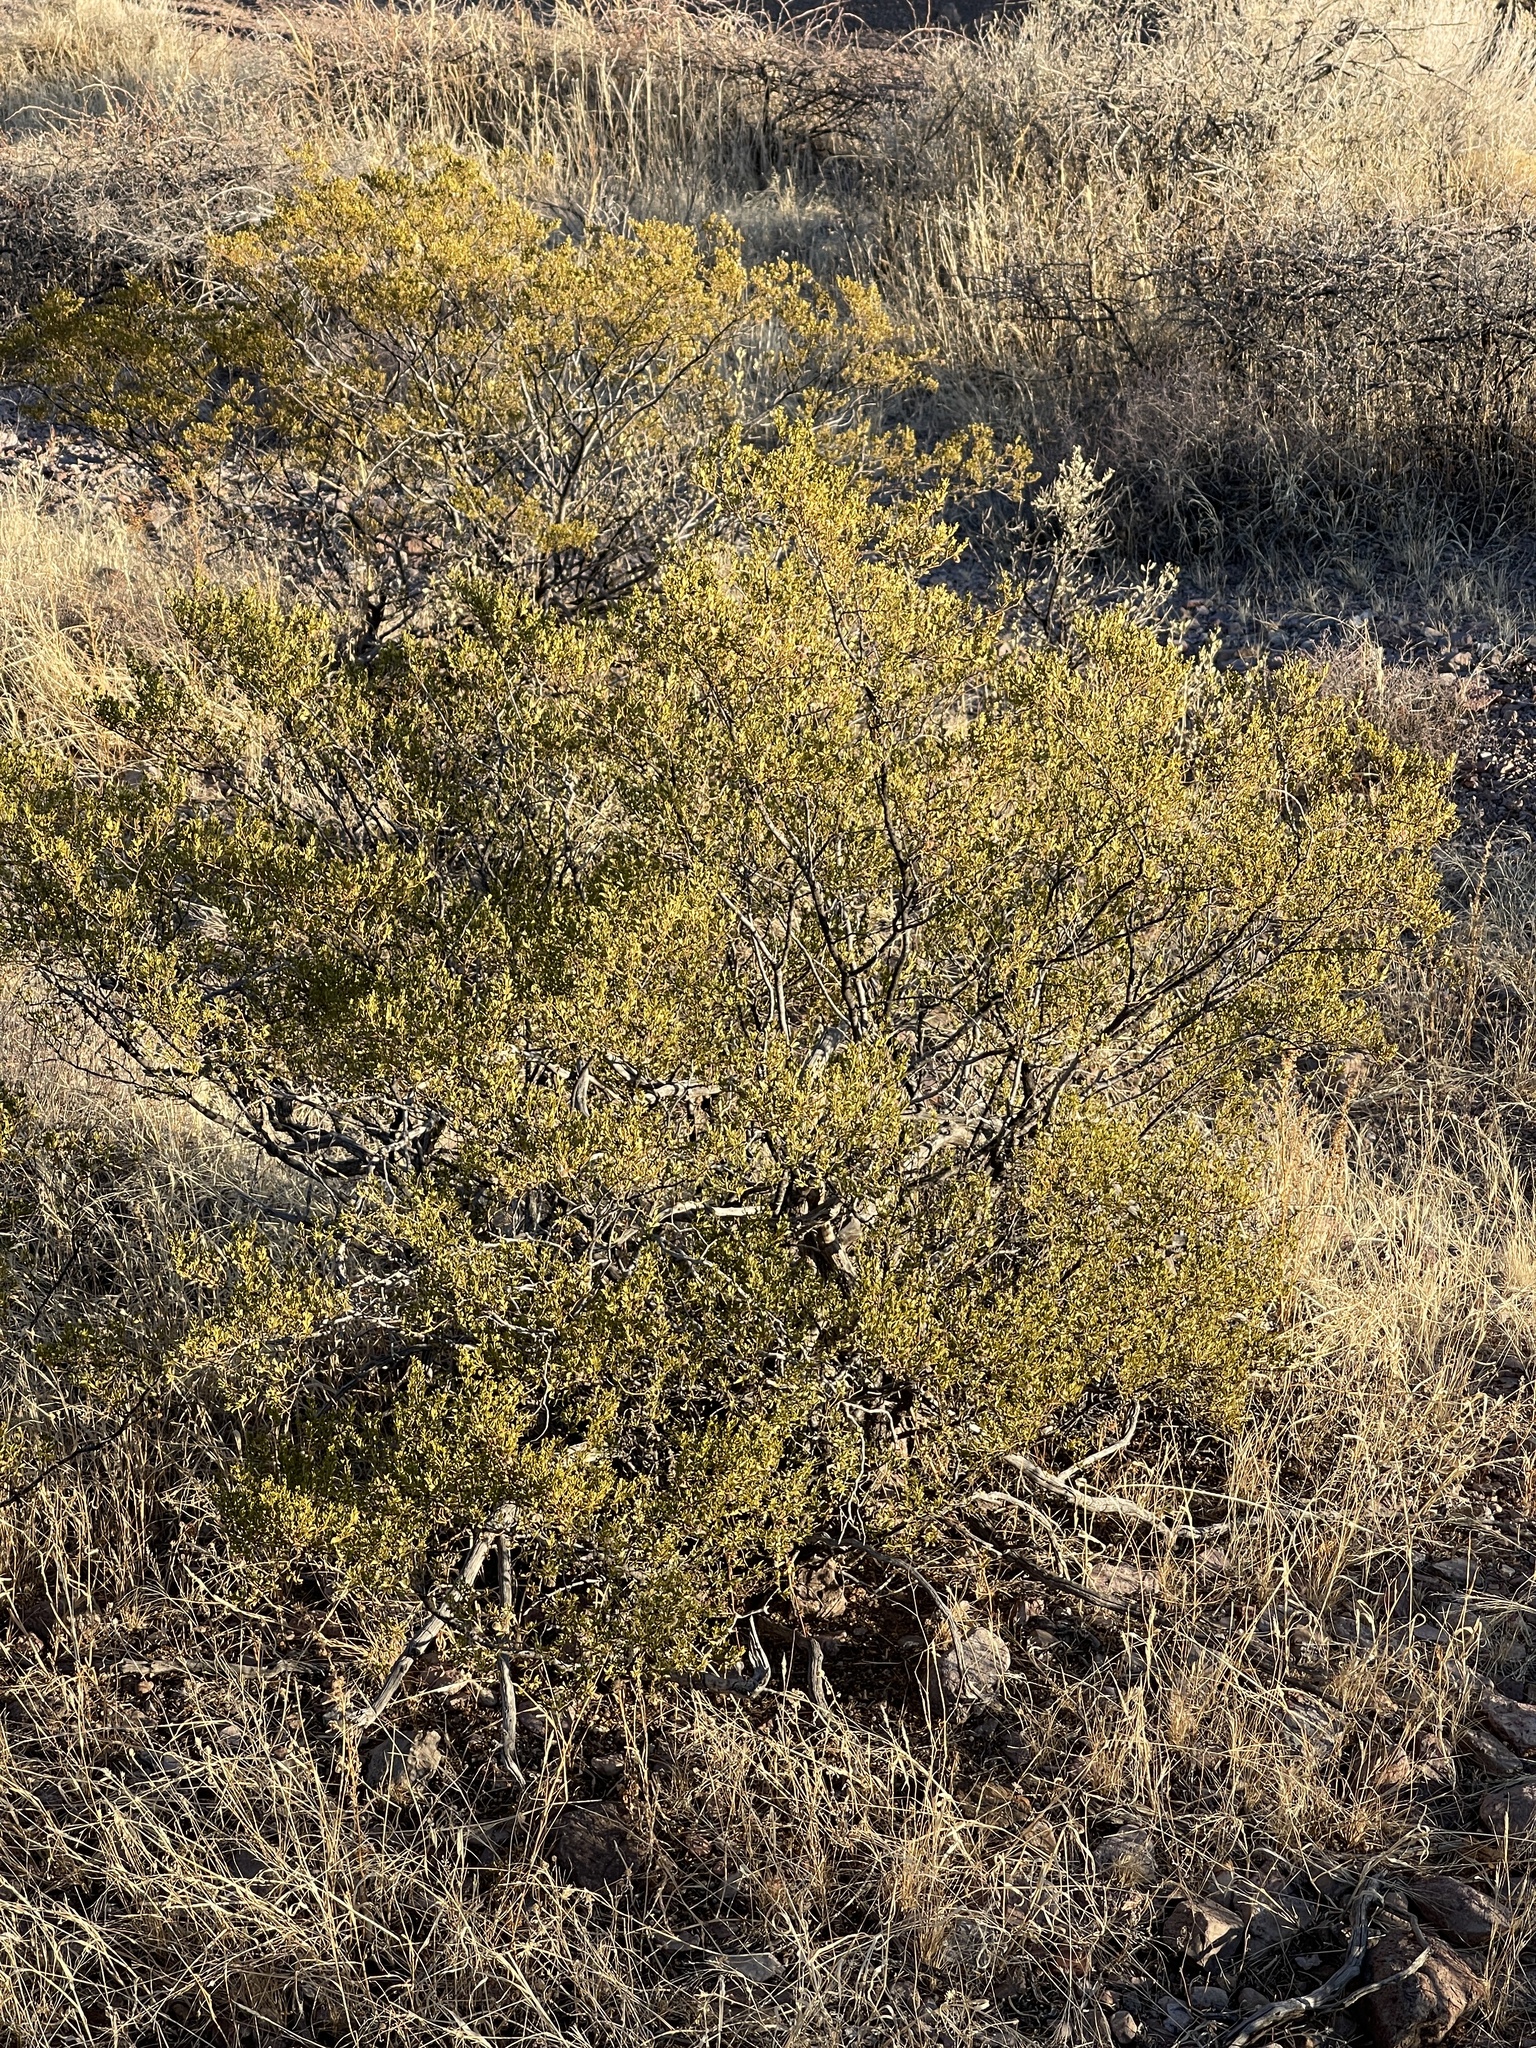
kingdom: Plantae
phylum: Tracheophyta
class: Magnoliopsida
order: Zygophyllales
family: Zygophyllaceae
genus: Larrea
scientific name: Larrea tridentata
